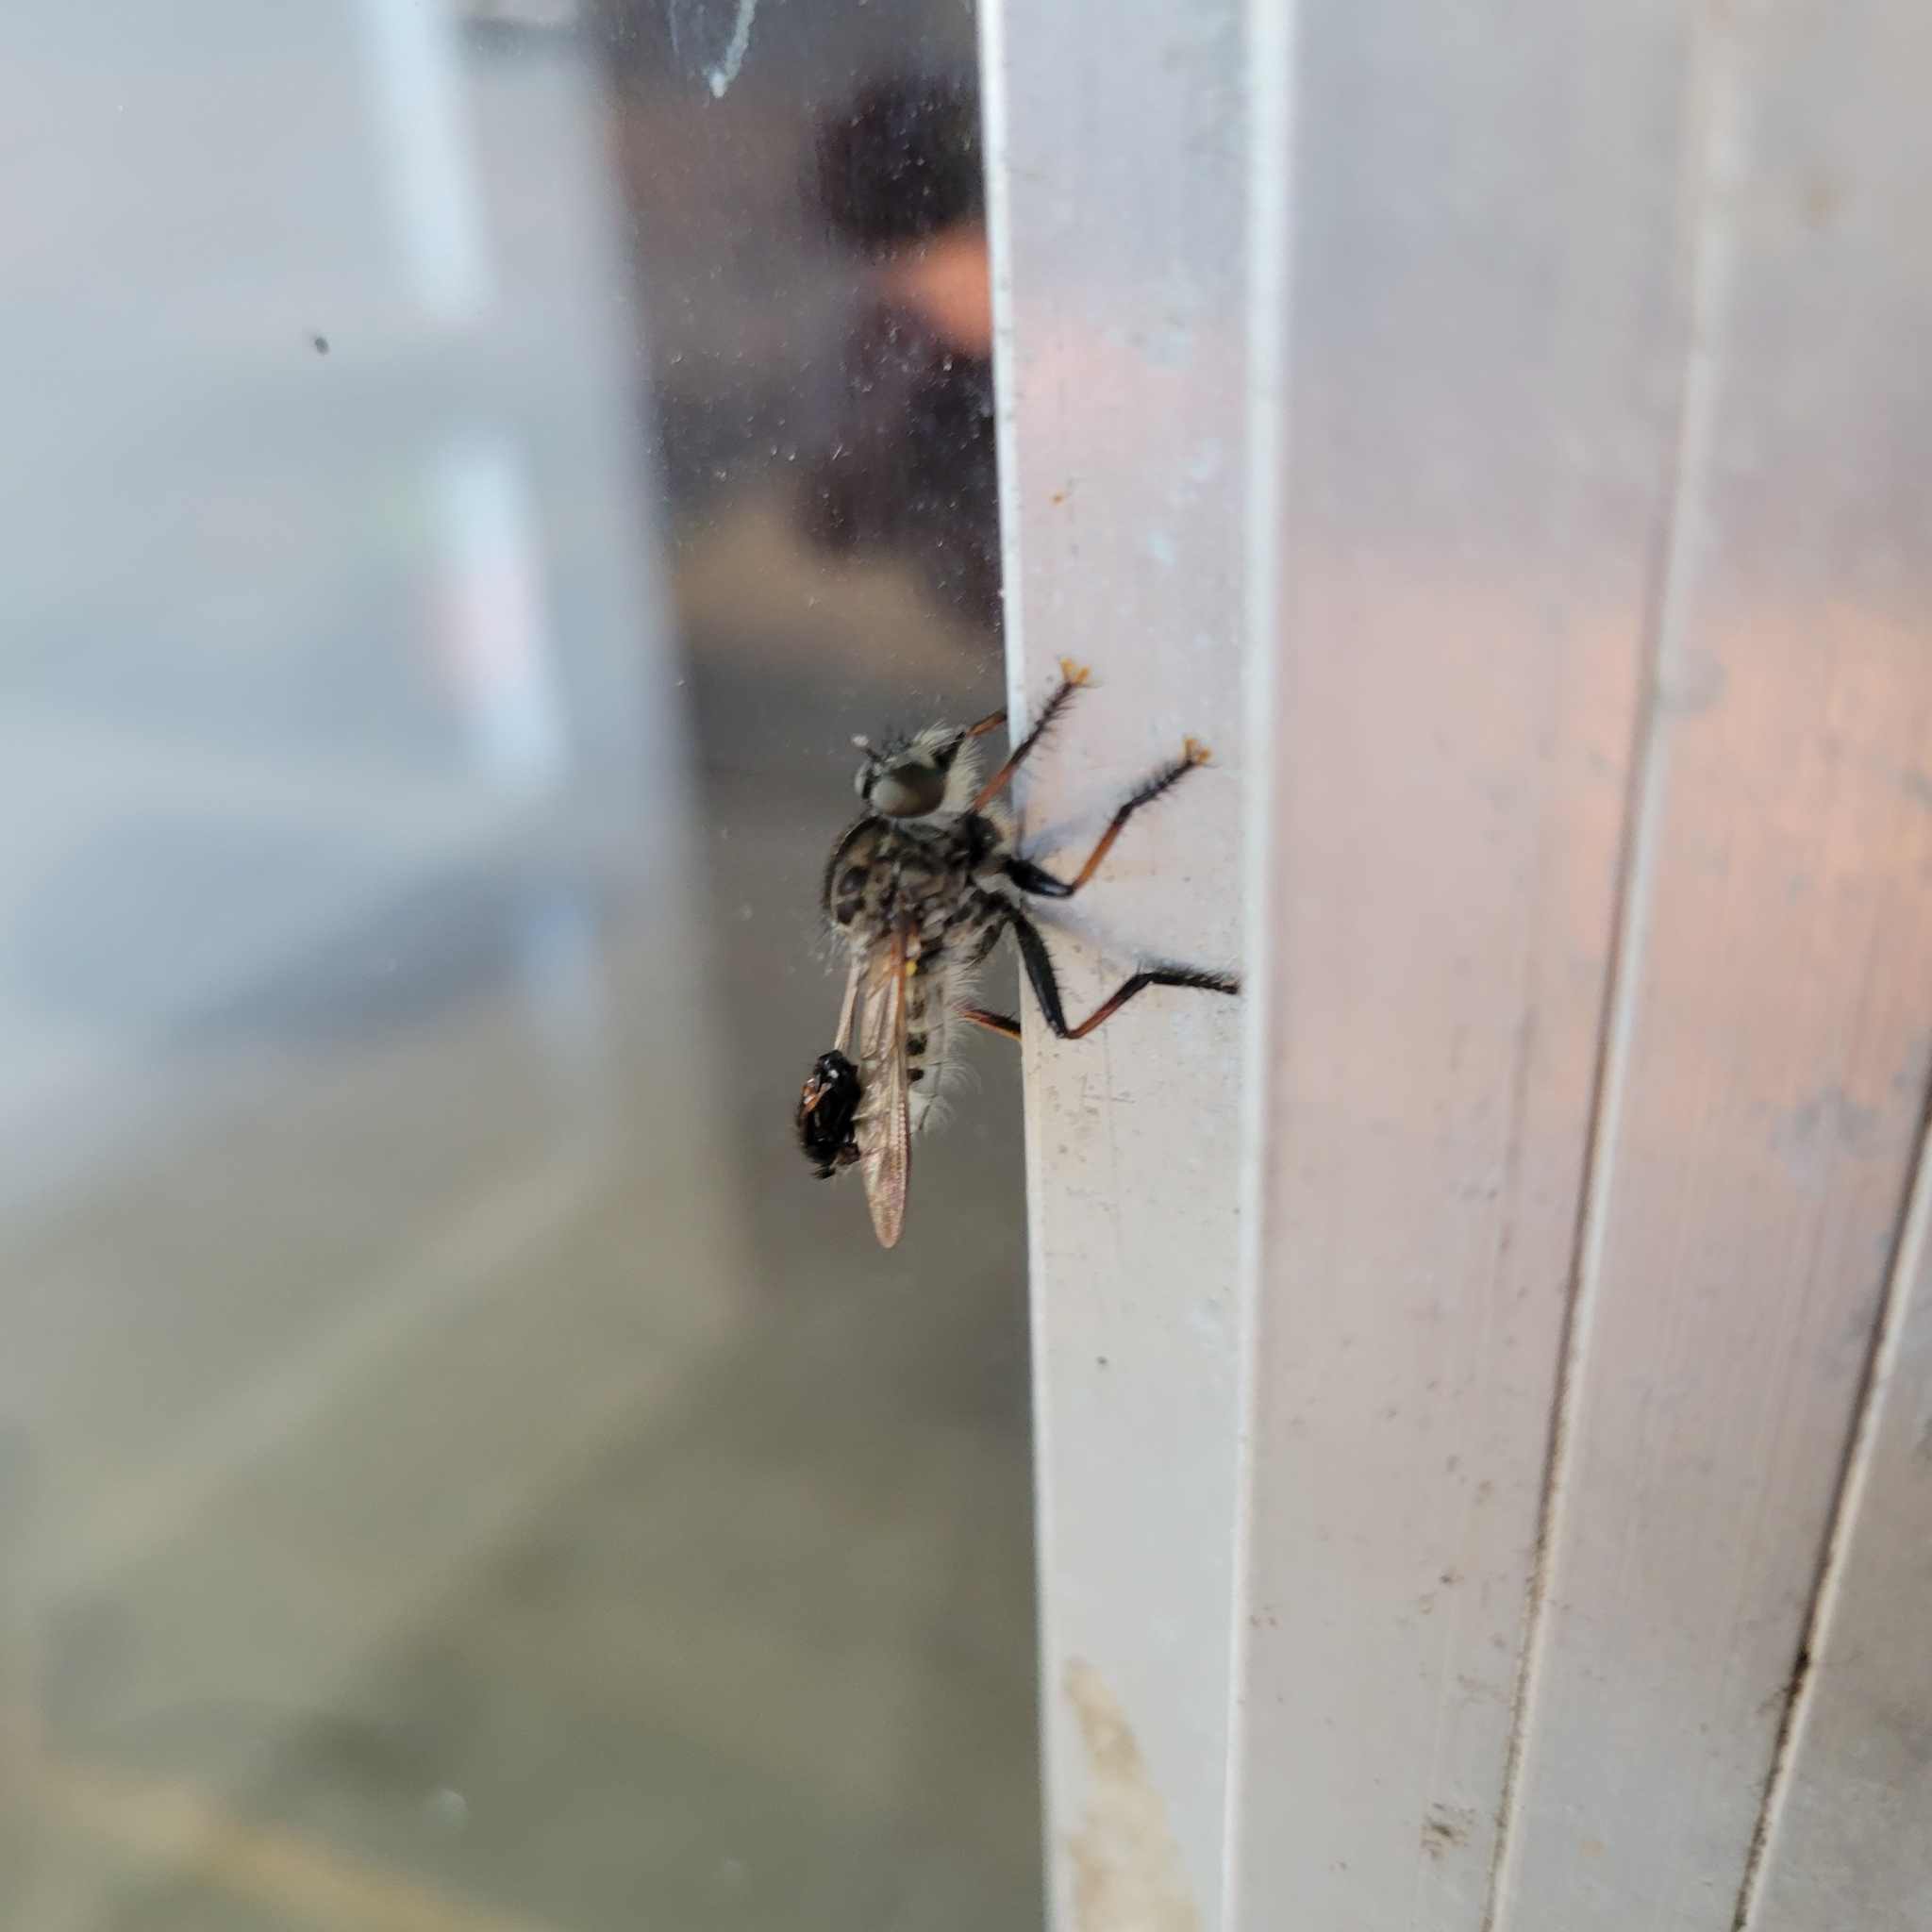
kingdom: Animalia
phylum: Arthropoda
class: Insecta
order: Diptera
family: Asilidae
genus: Efferia
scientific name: Efferia aestuans
